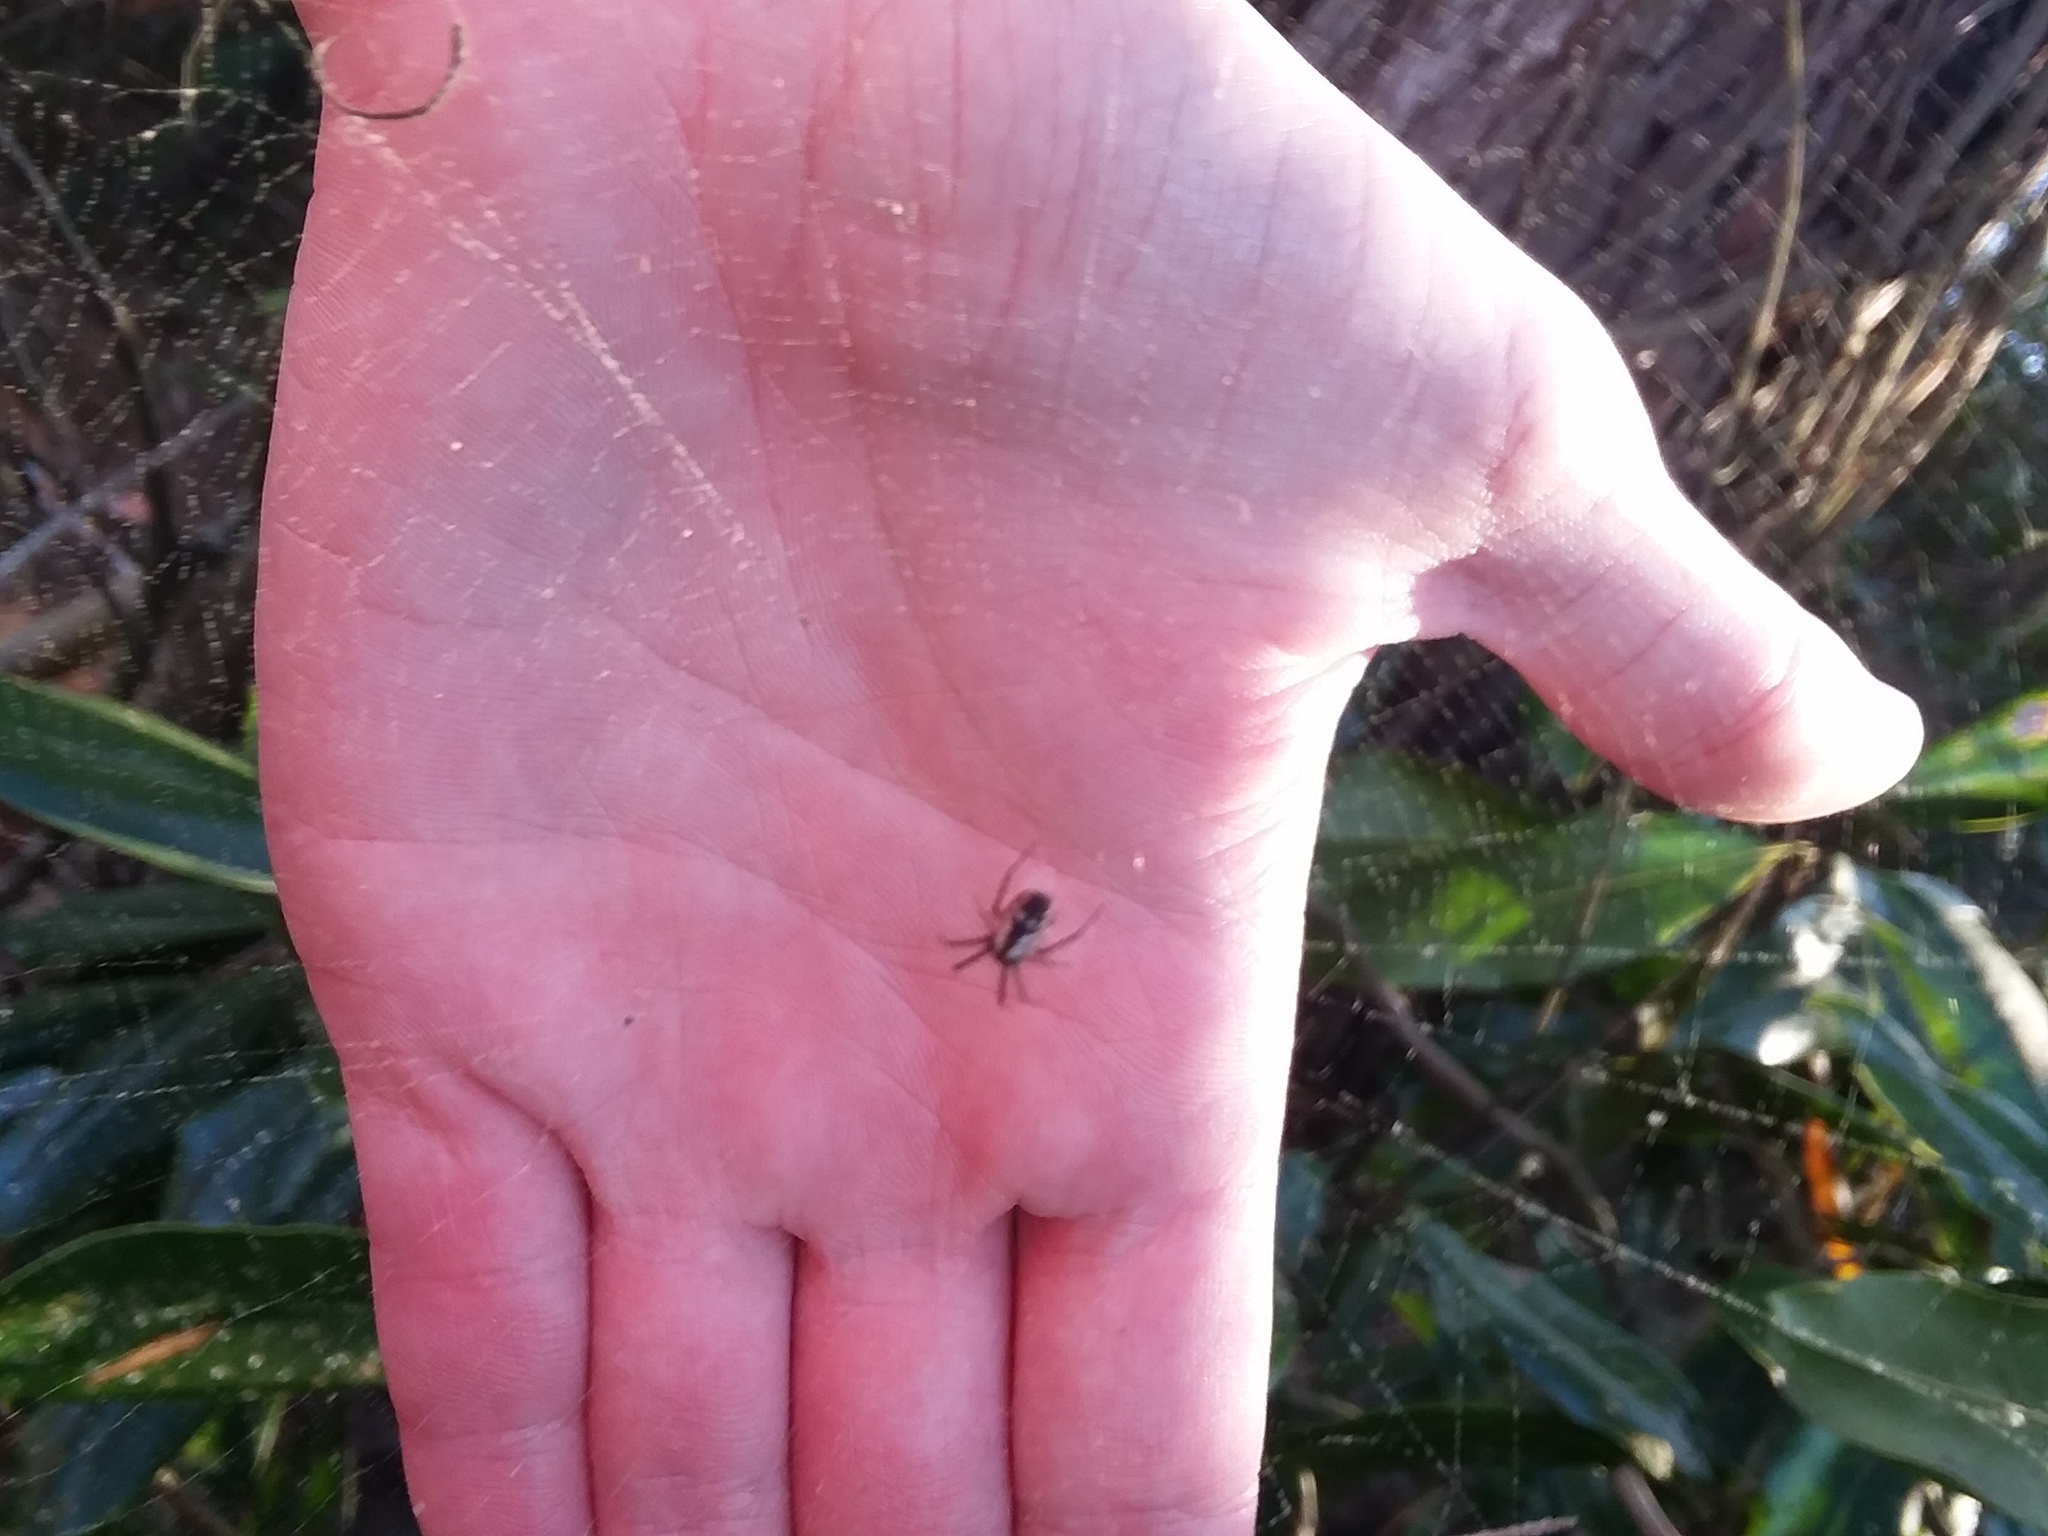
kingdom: Animalia
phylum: Arthropoda
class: Arachnida
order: Araneae
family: Araneidae
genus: Mangora
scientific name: Mangora placida
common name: Tuft-legged orbweaver
